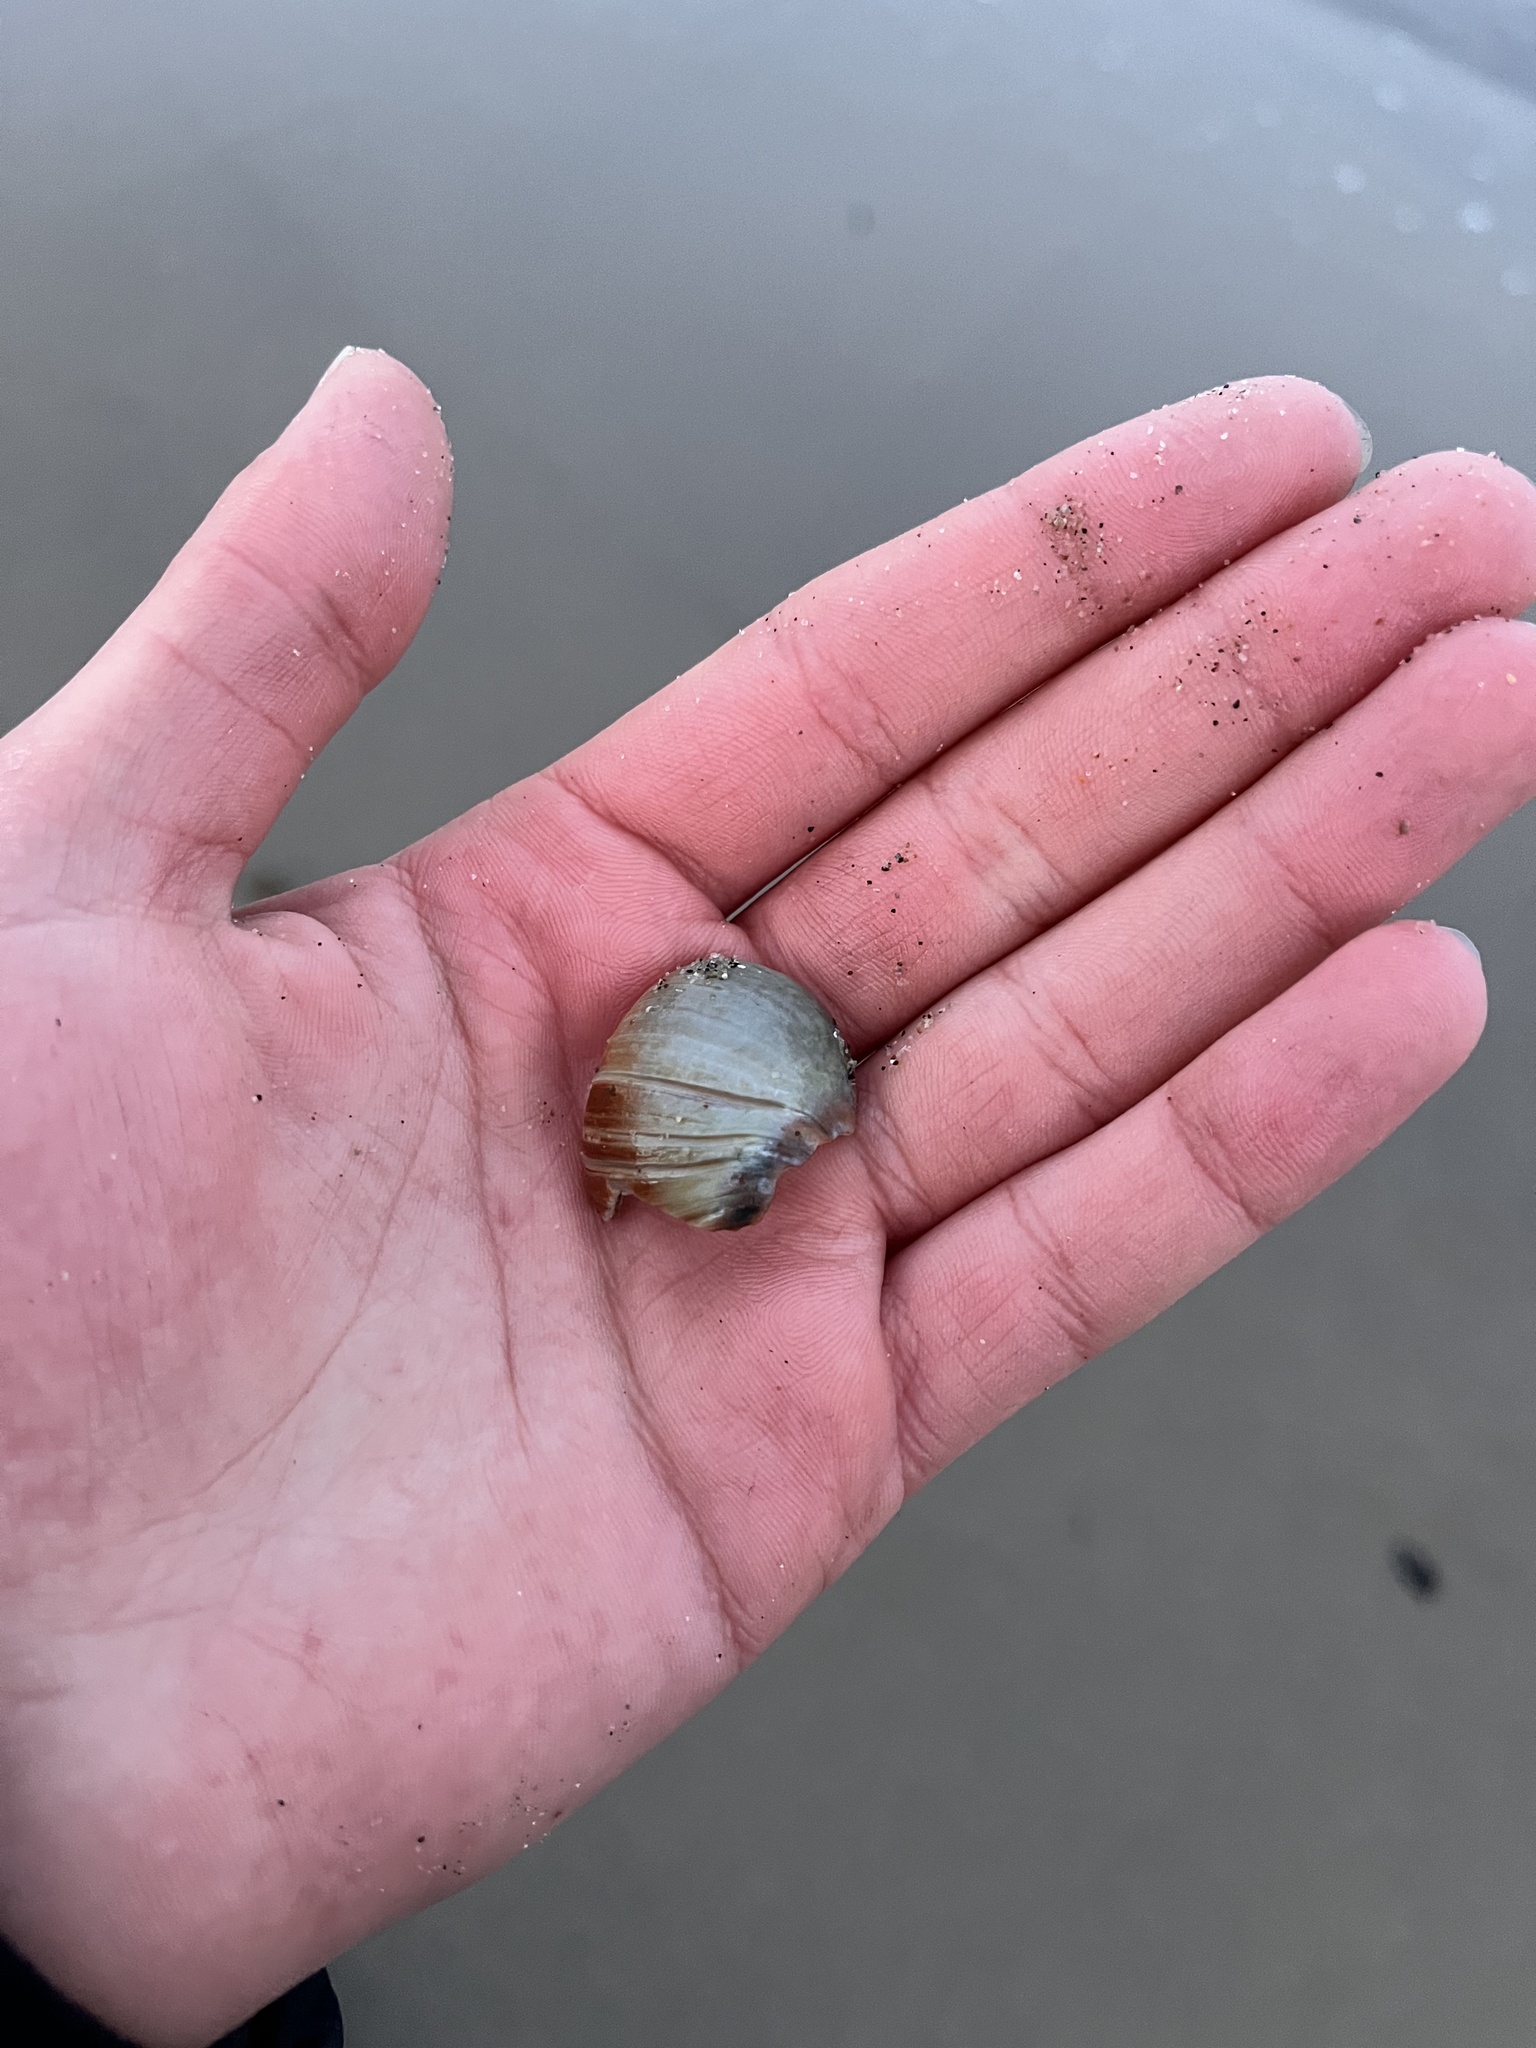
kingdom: Animalia
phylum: Mollusca
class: Gastropoda
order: Littorinimorpha
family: Naticidae
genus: Glossaulax
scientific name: Glossaulax reclusiana
